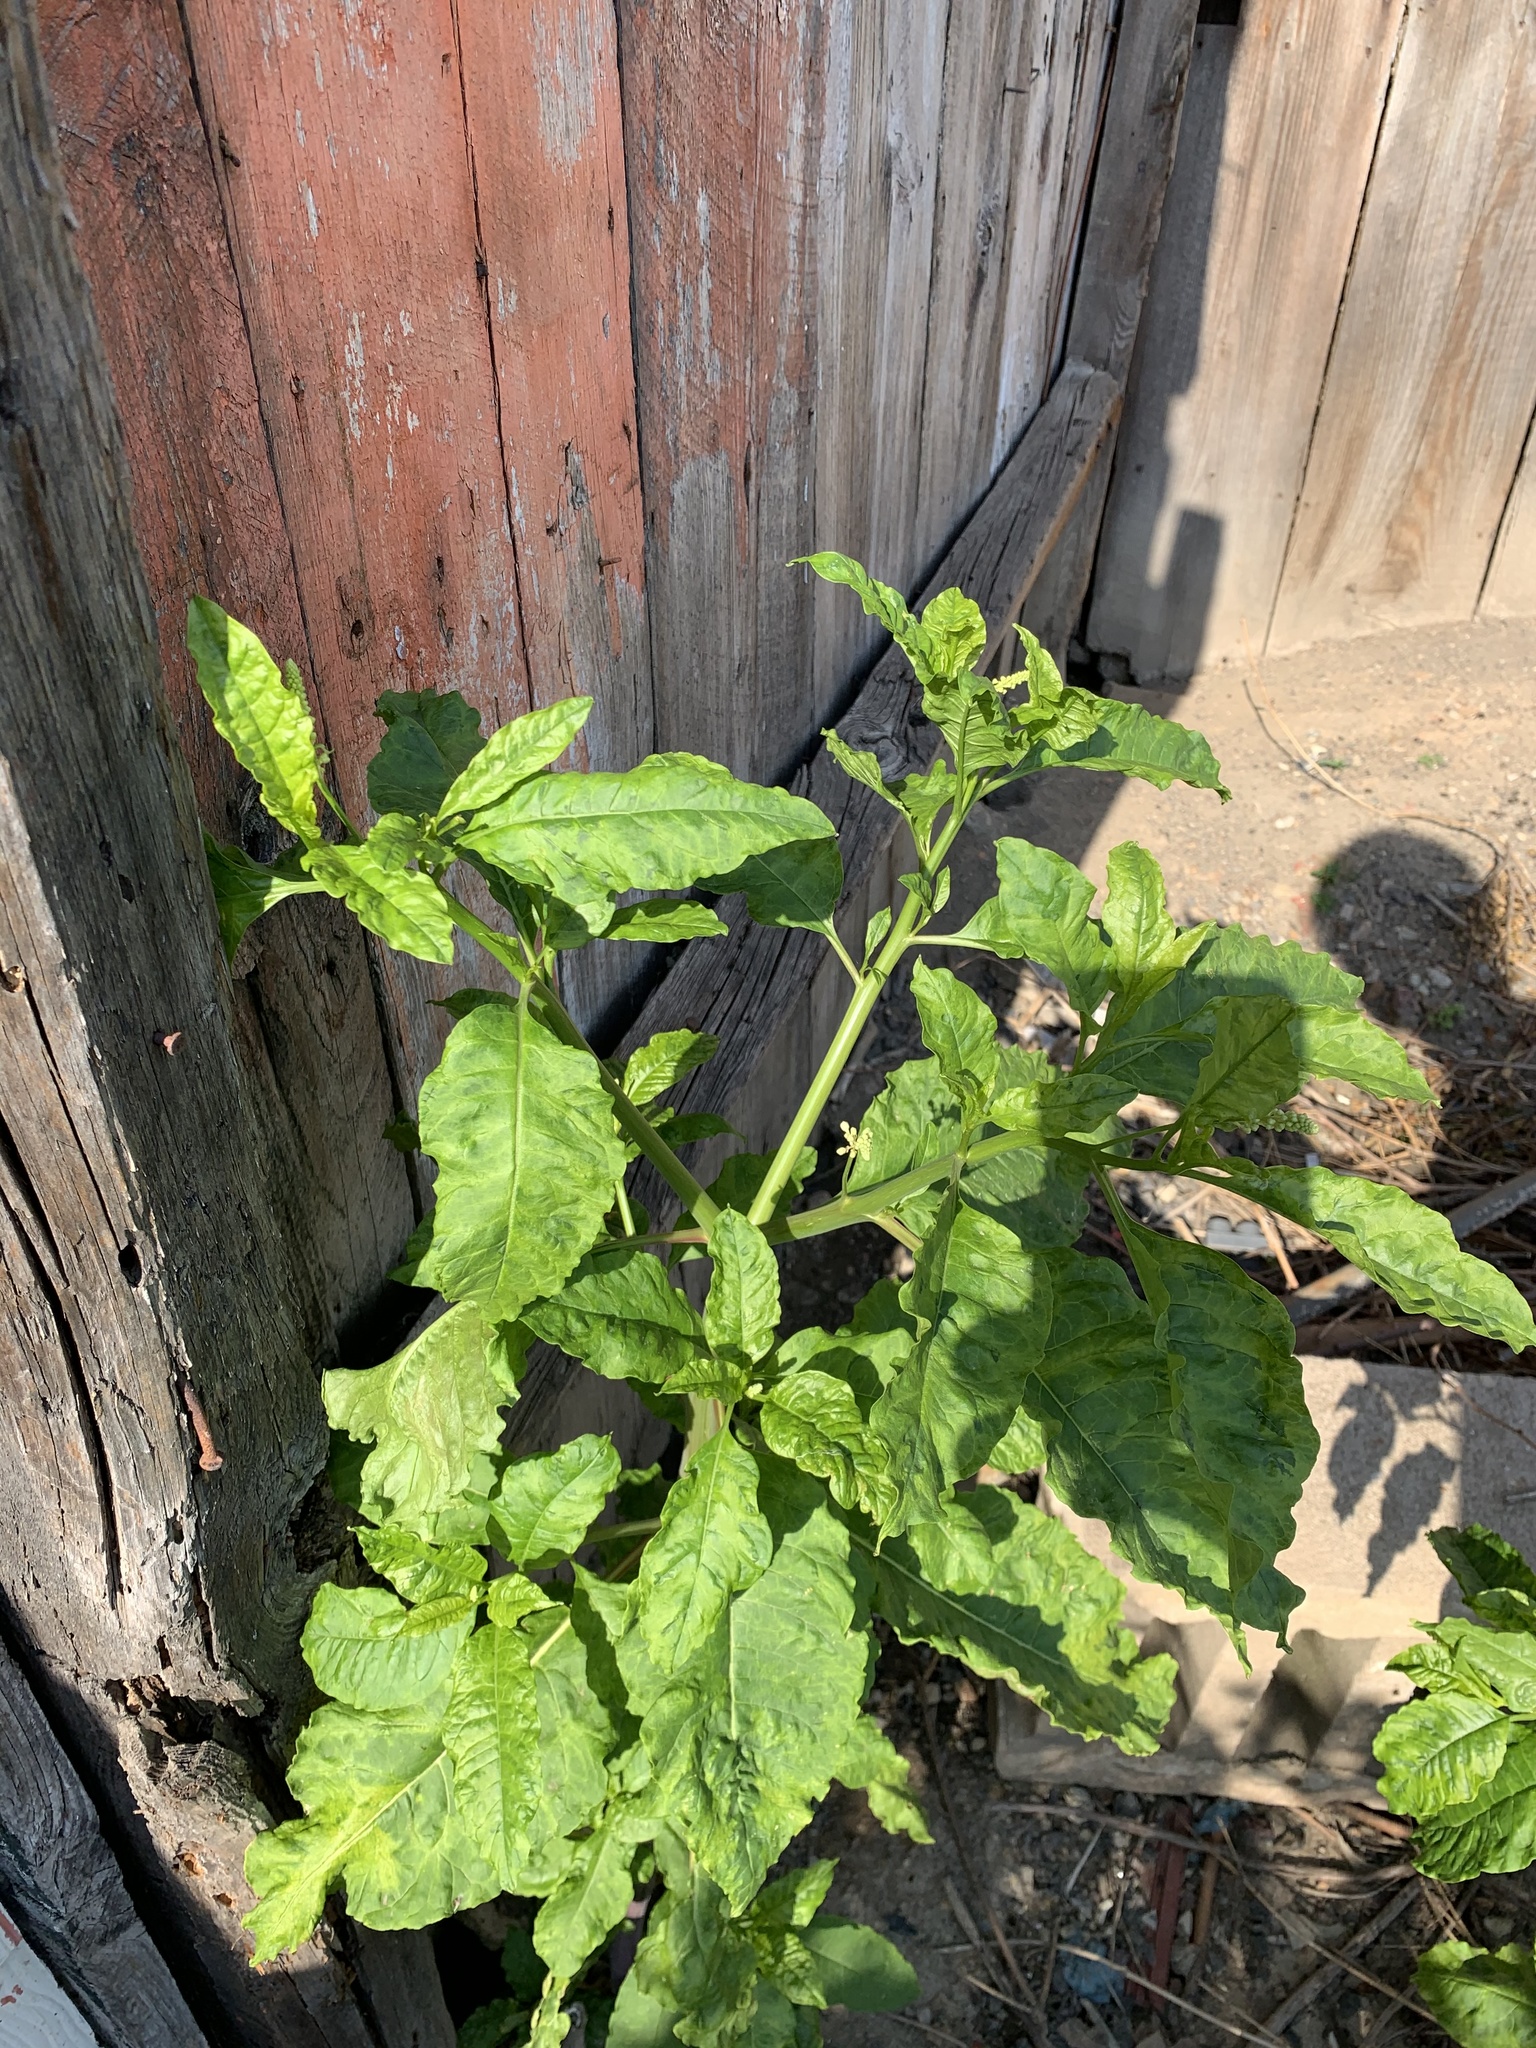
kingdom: Plantae
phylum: Tracheophyta
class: Magnoliopsida
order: Caryophyllales
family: Phytolaccaceae
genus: Phytolacca
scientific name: Phytolacca americana
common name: American pokeweed
